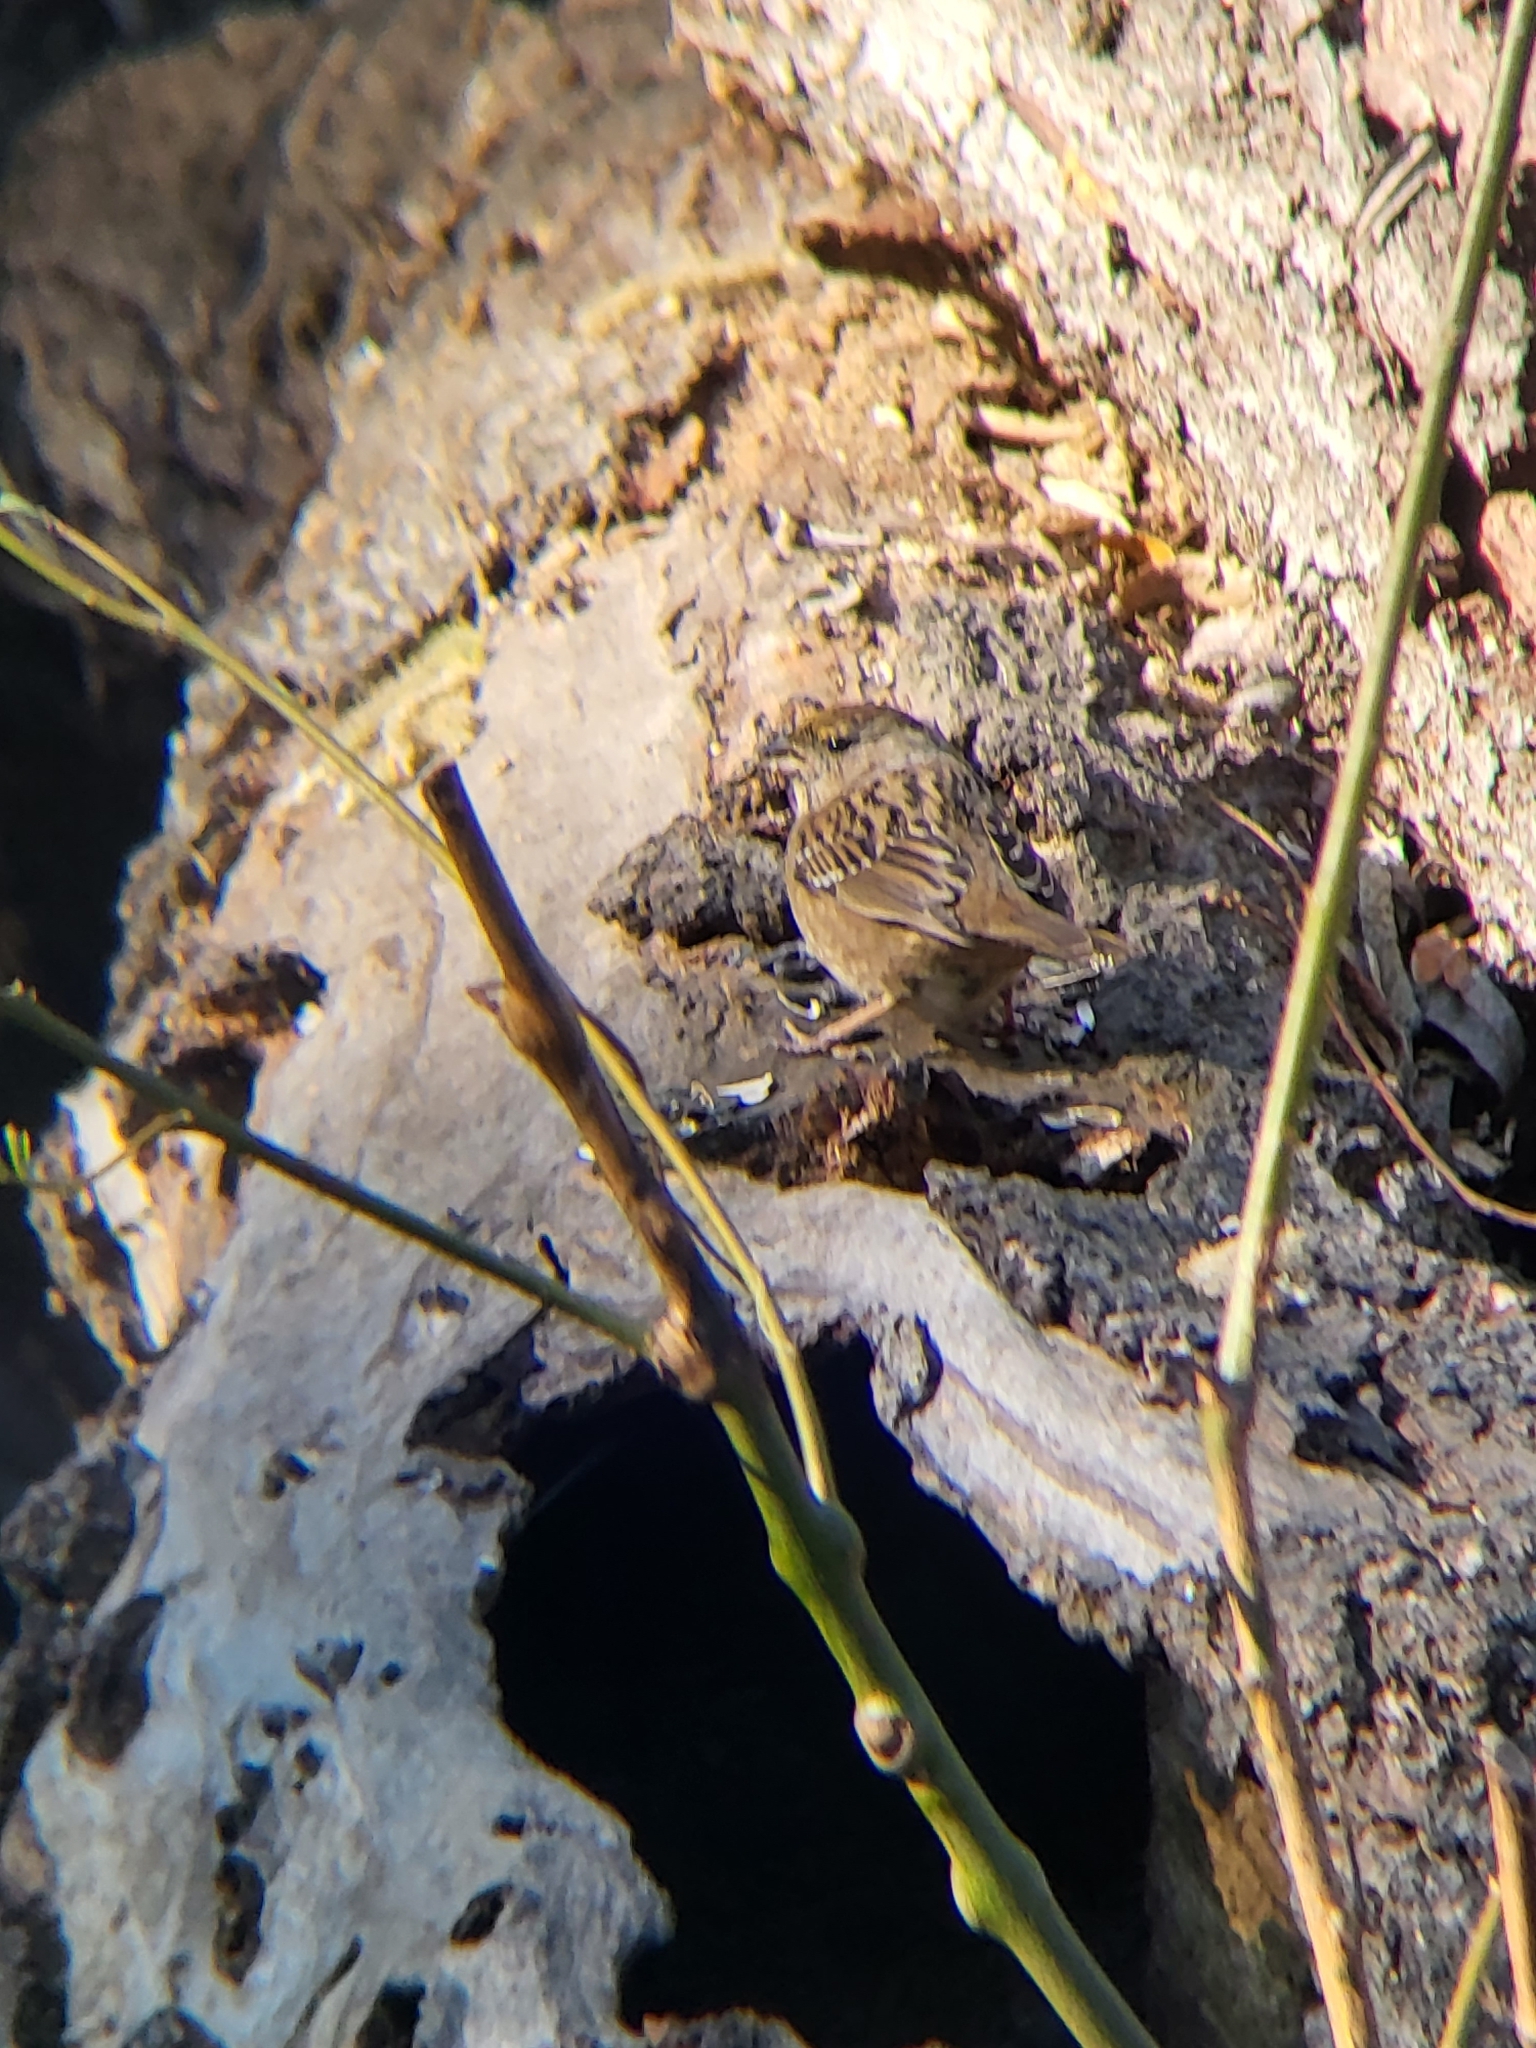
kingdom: Animalia
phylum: Chordata
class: Aves
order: Passeriformes
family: Passerellidae
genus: Zonotrichia
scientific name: Zonotrichia atricapilla
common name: Golden-crowned sparrow
